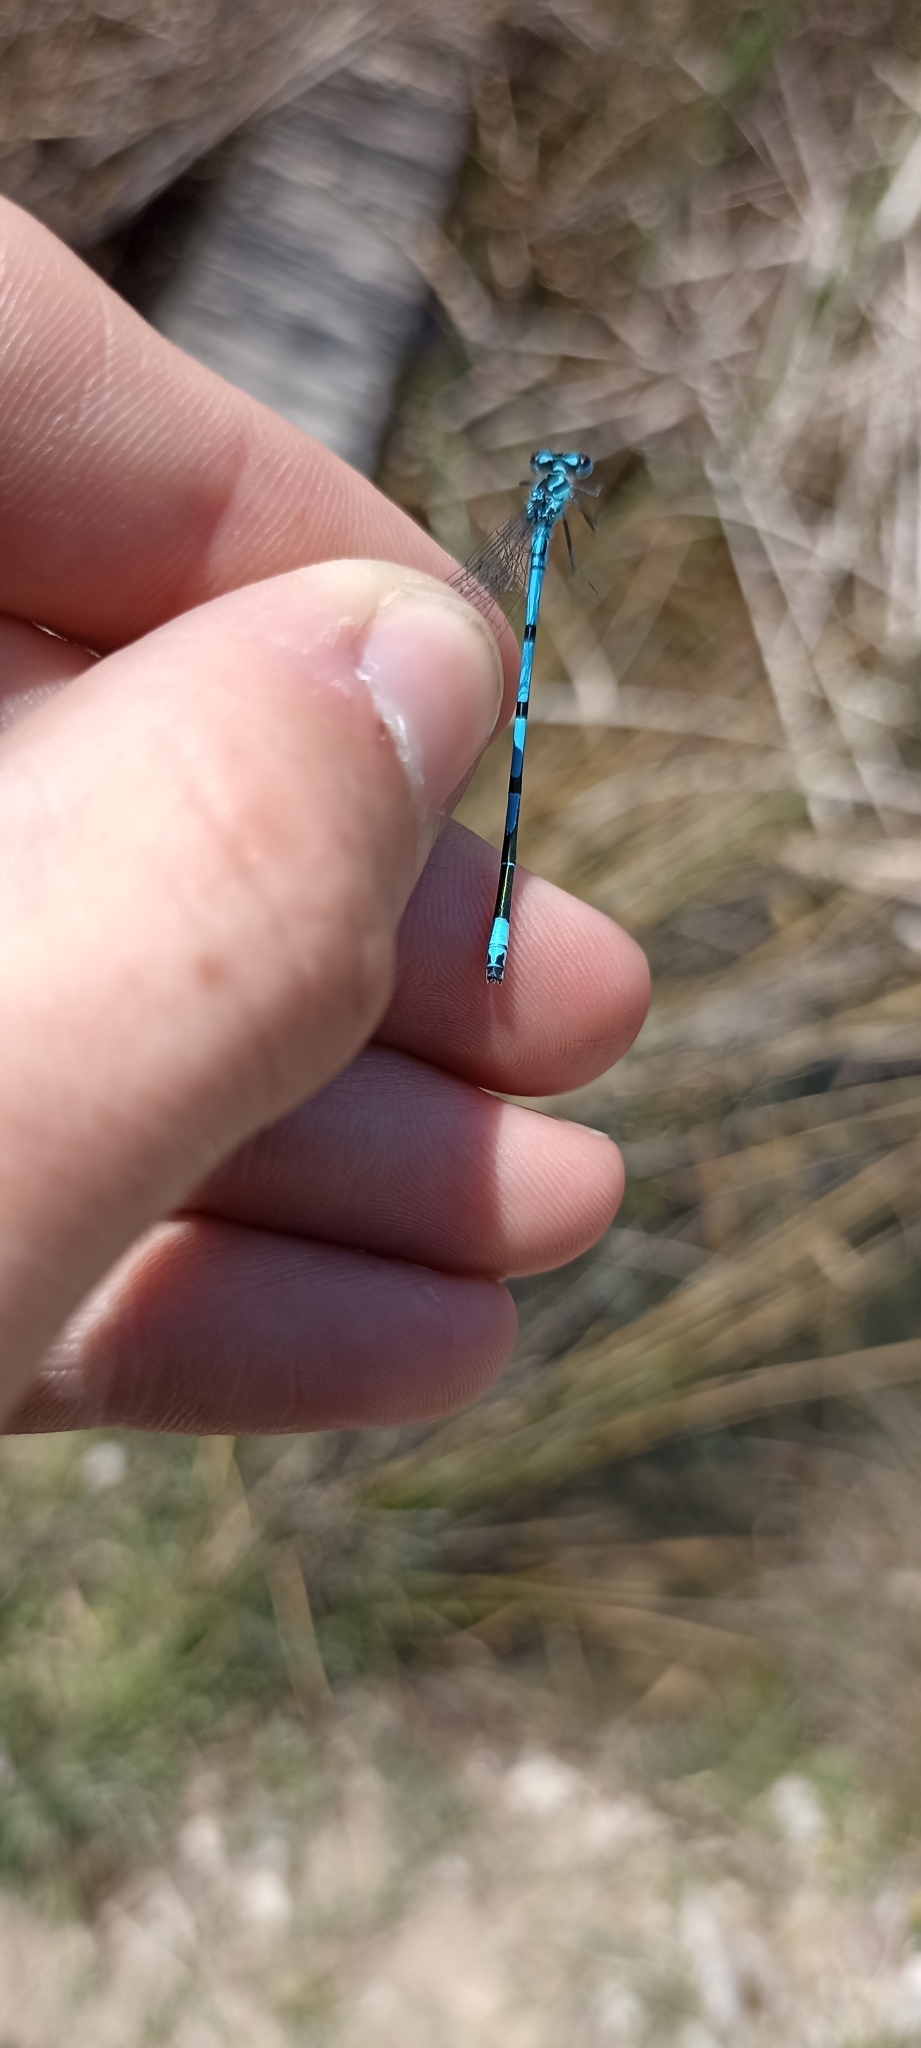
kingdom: Animalia
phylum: Arthropoda
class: Insecta
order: Odonata
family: Coenagrionidae
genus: Coenagrion
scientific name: Coenagrion puella
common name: Azure damselfly
